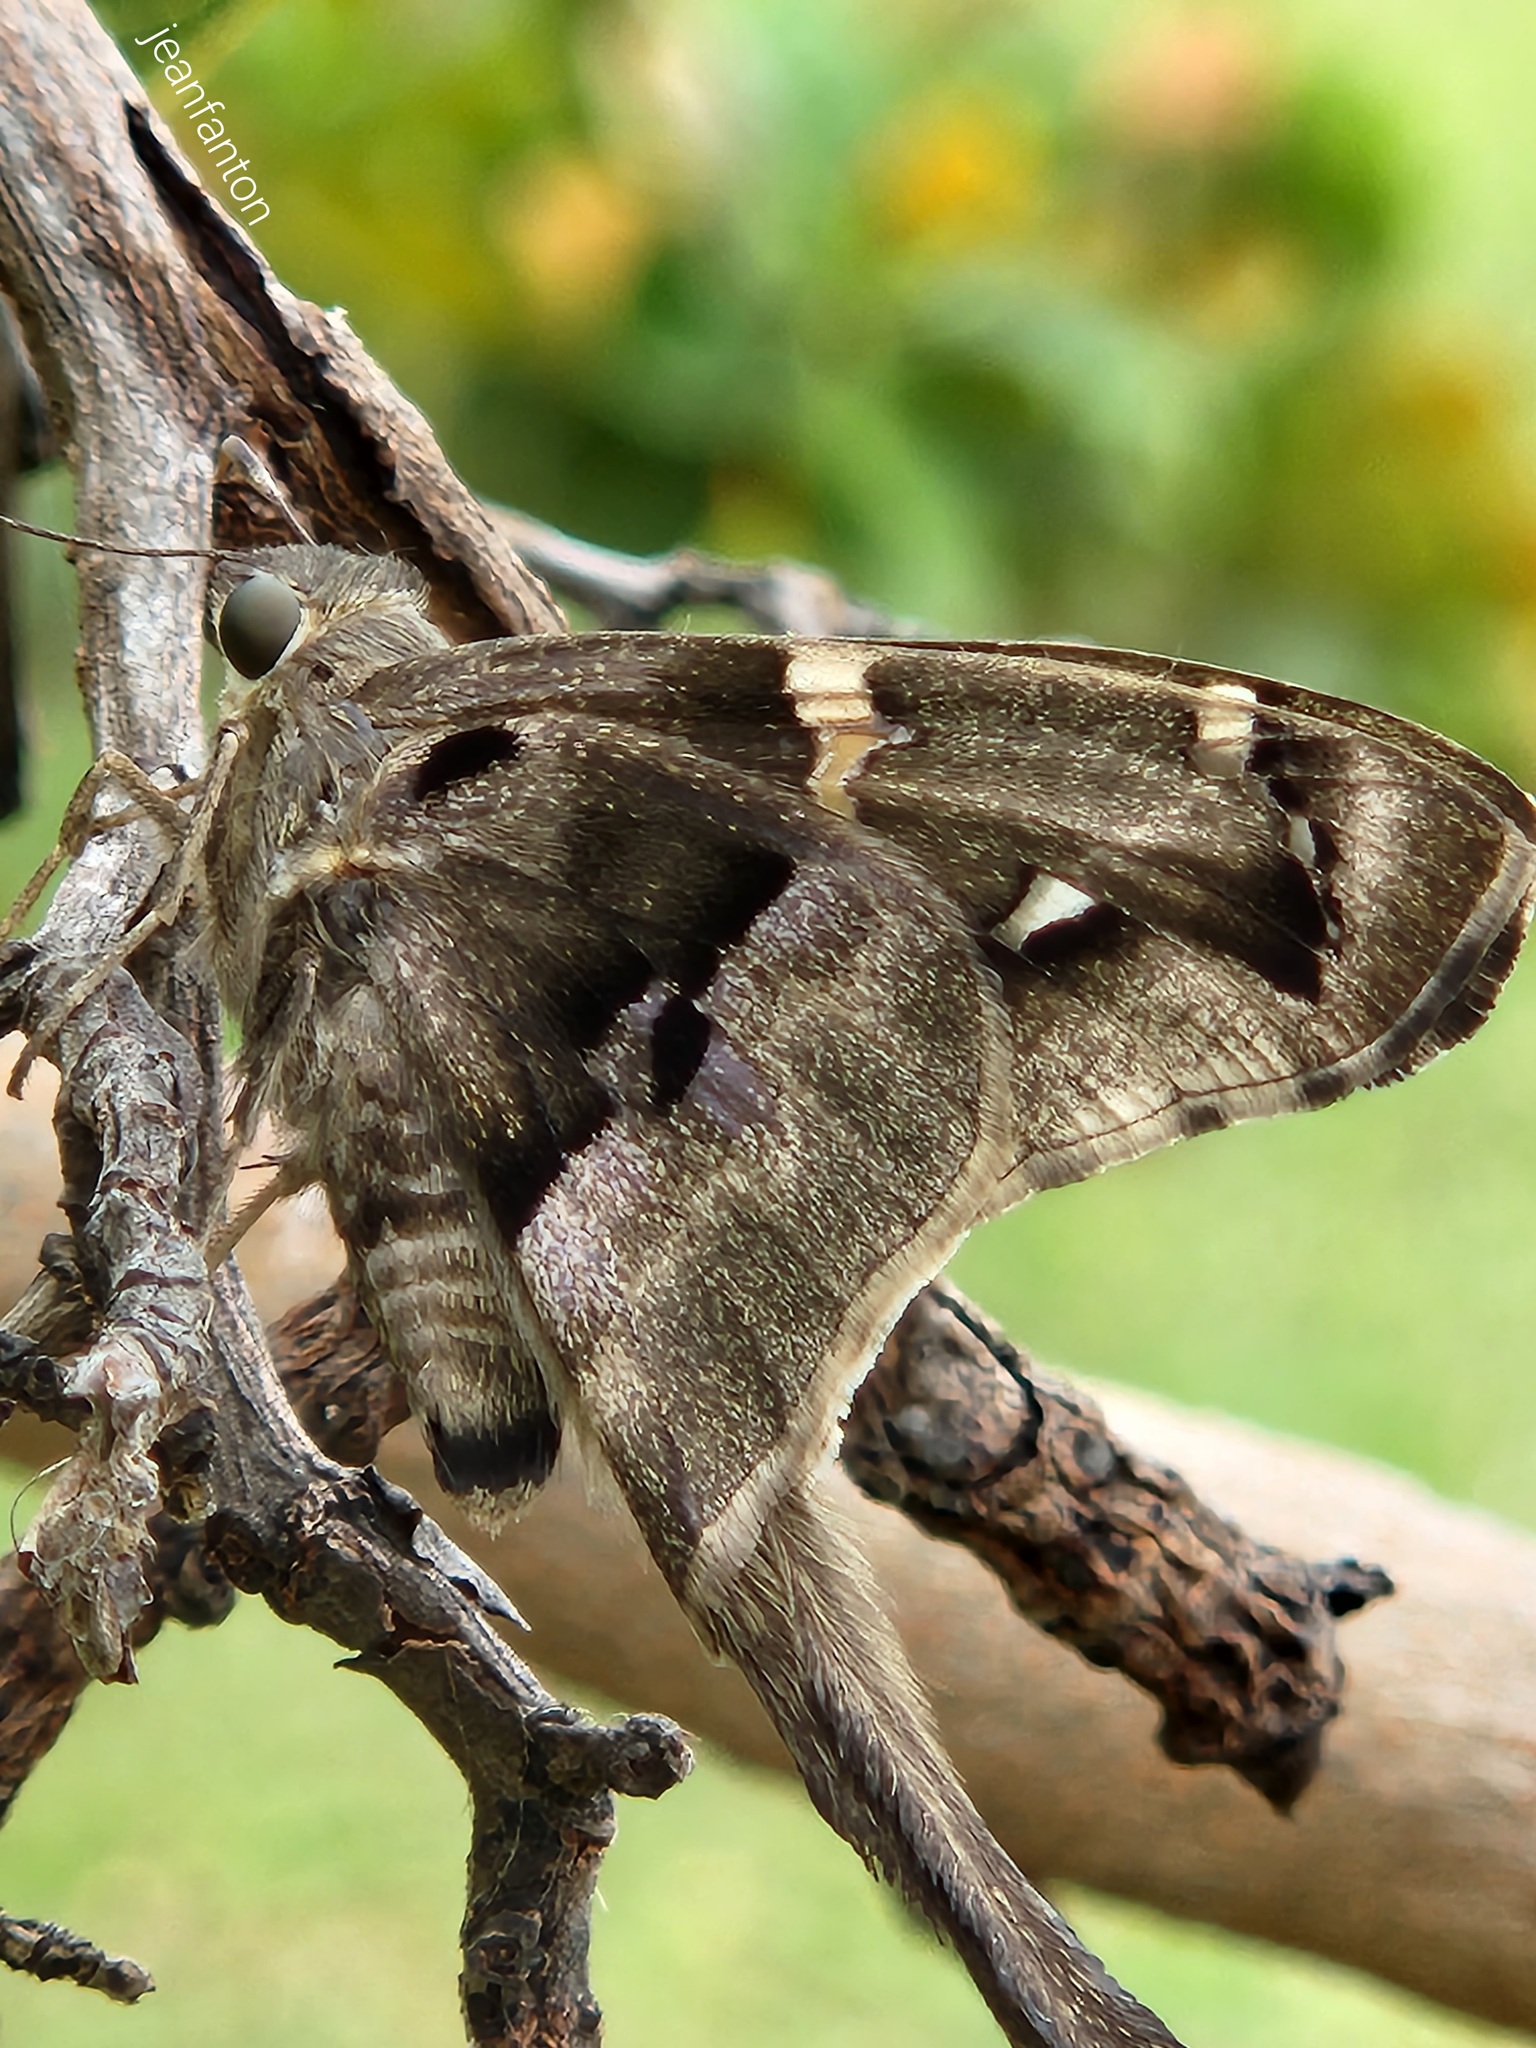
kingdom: Animalia
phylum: Arthropoda
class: Insecta
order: Lepidoptera
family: Hesperiidae
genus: Aguna
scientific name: Aguna megaeles
